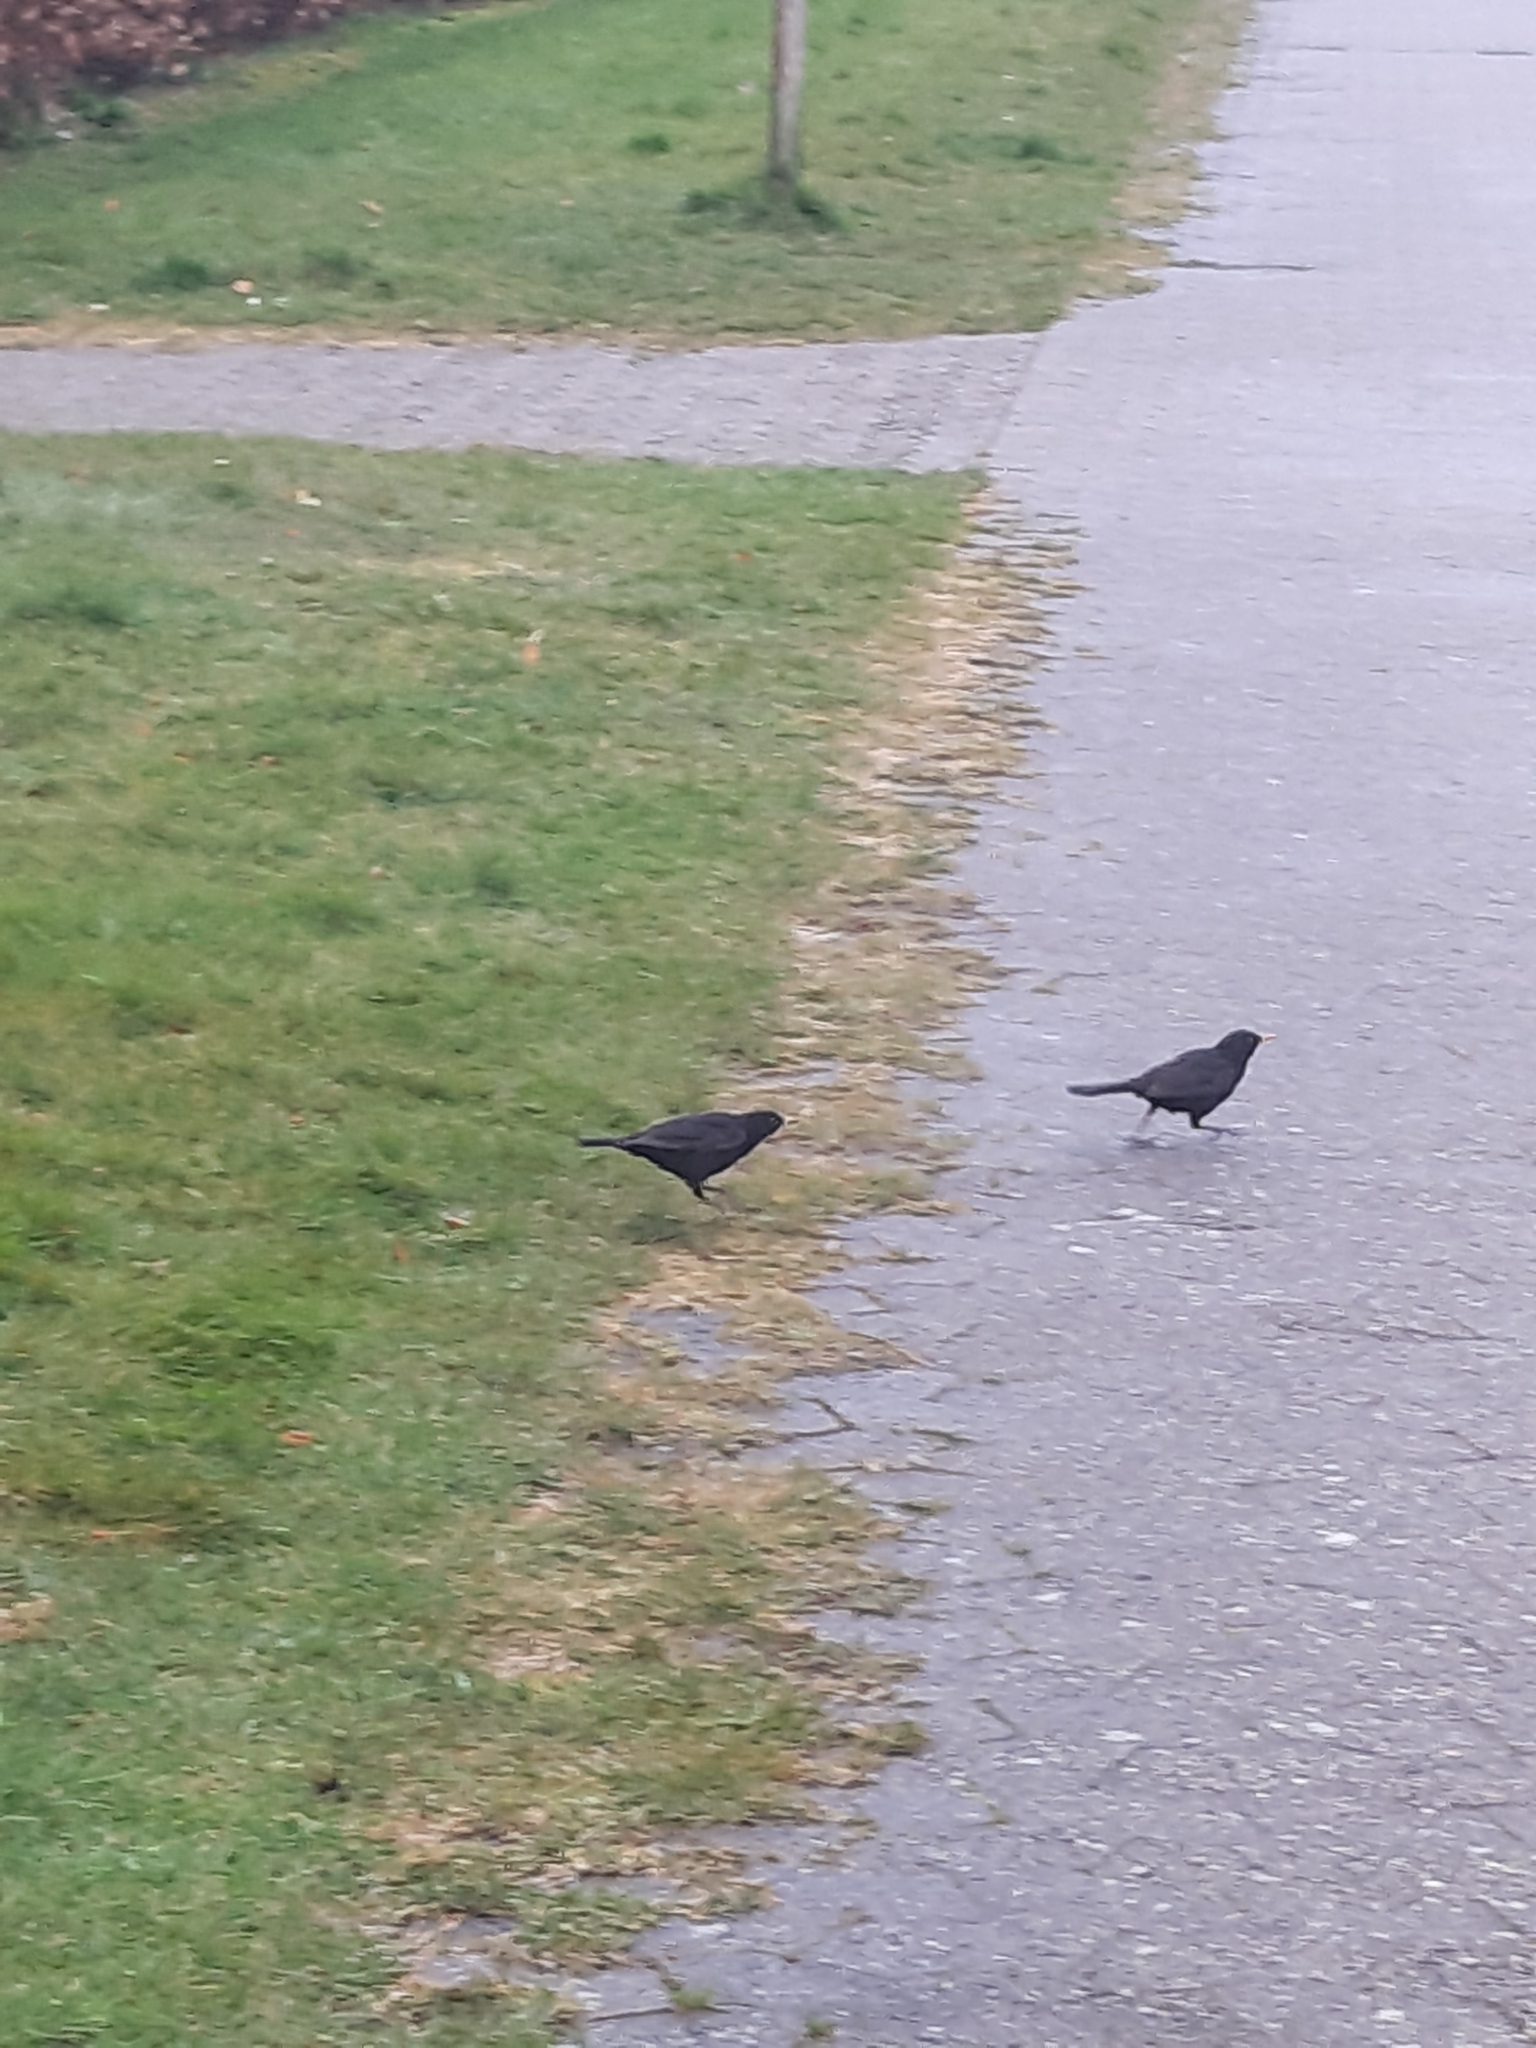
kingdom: Animalia
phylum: Chordata
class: Aves
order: Passeriformes
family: Turdidae
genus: Turdus
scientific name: Turdus merula
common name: Common blackbird
